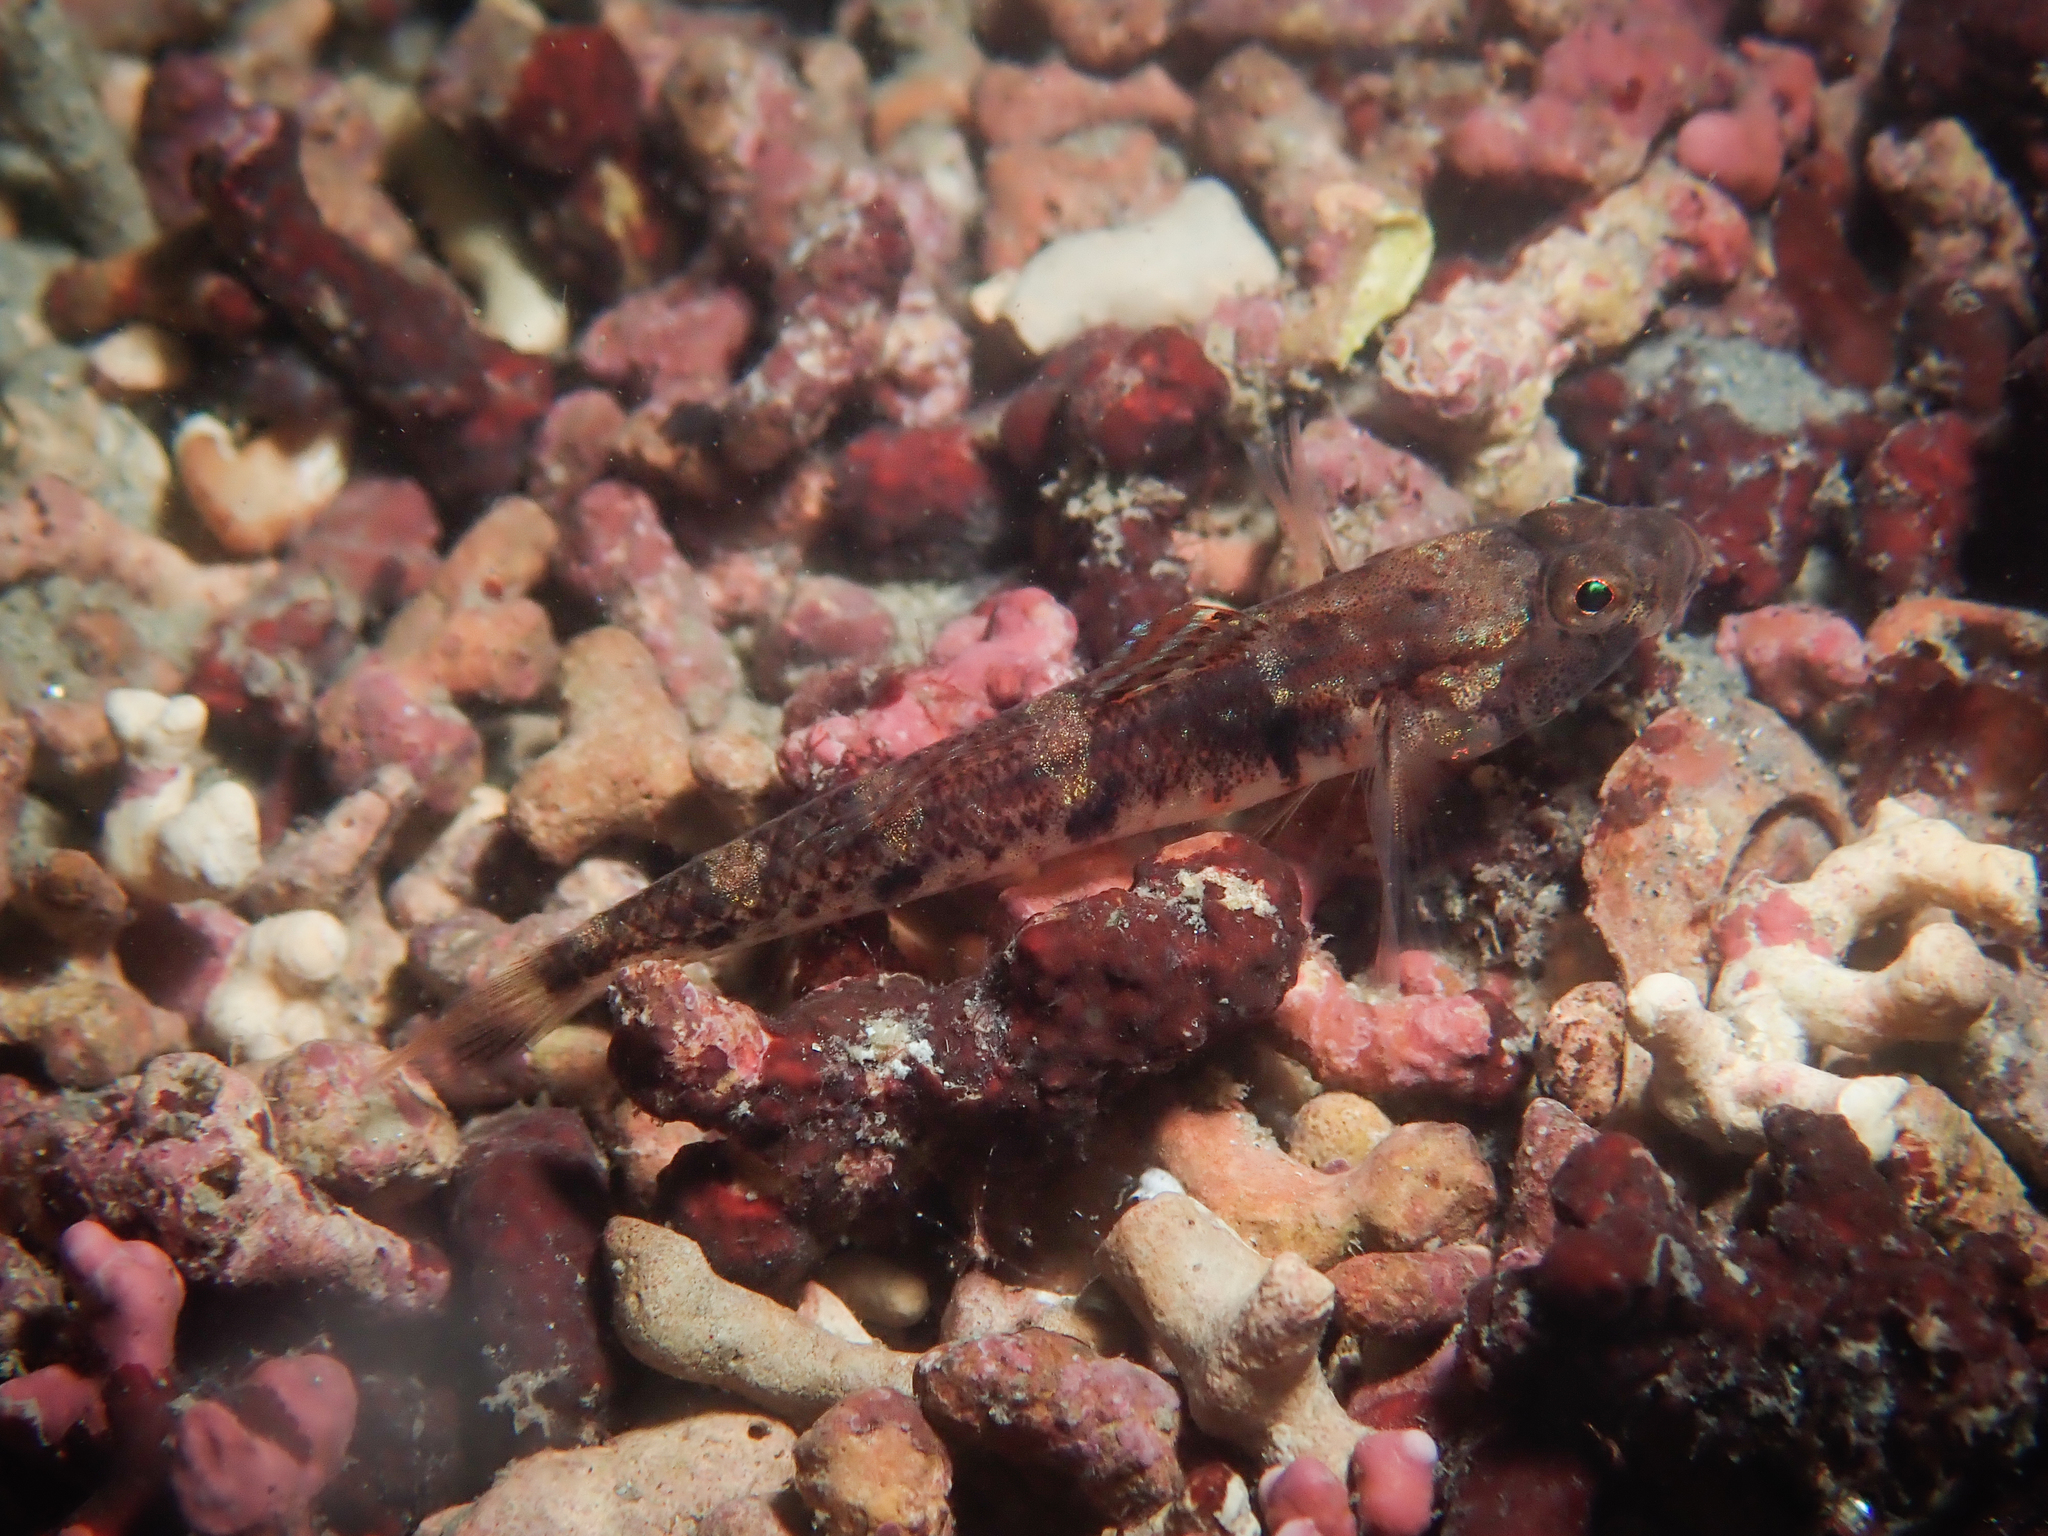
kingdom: Animalia
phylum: Chordata
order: Perciformes
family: Gobiidae
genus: Pomatoschistus
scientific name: Pomatoschistus pictus
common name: Painted goby
